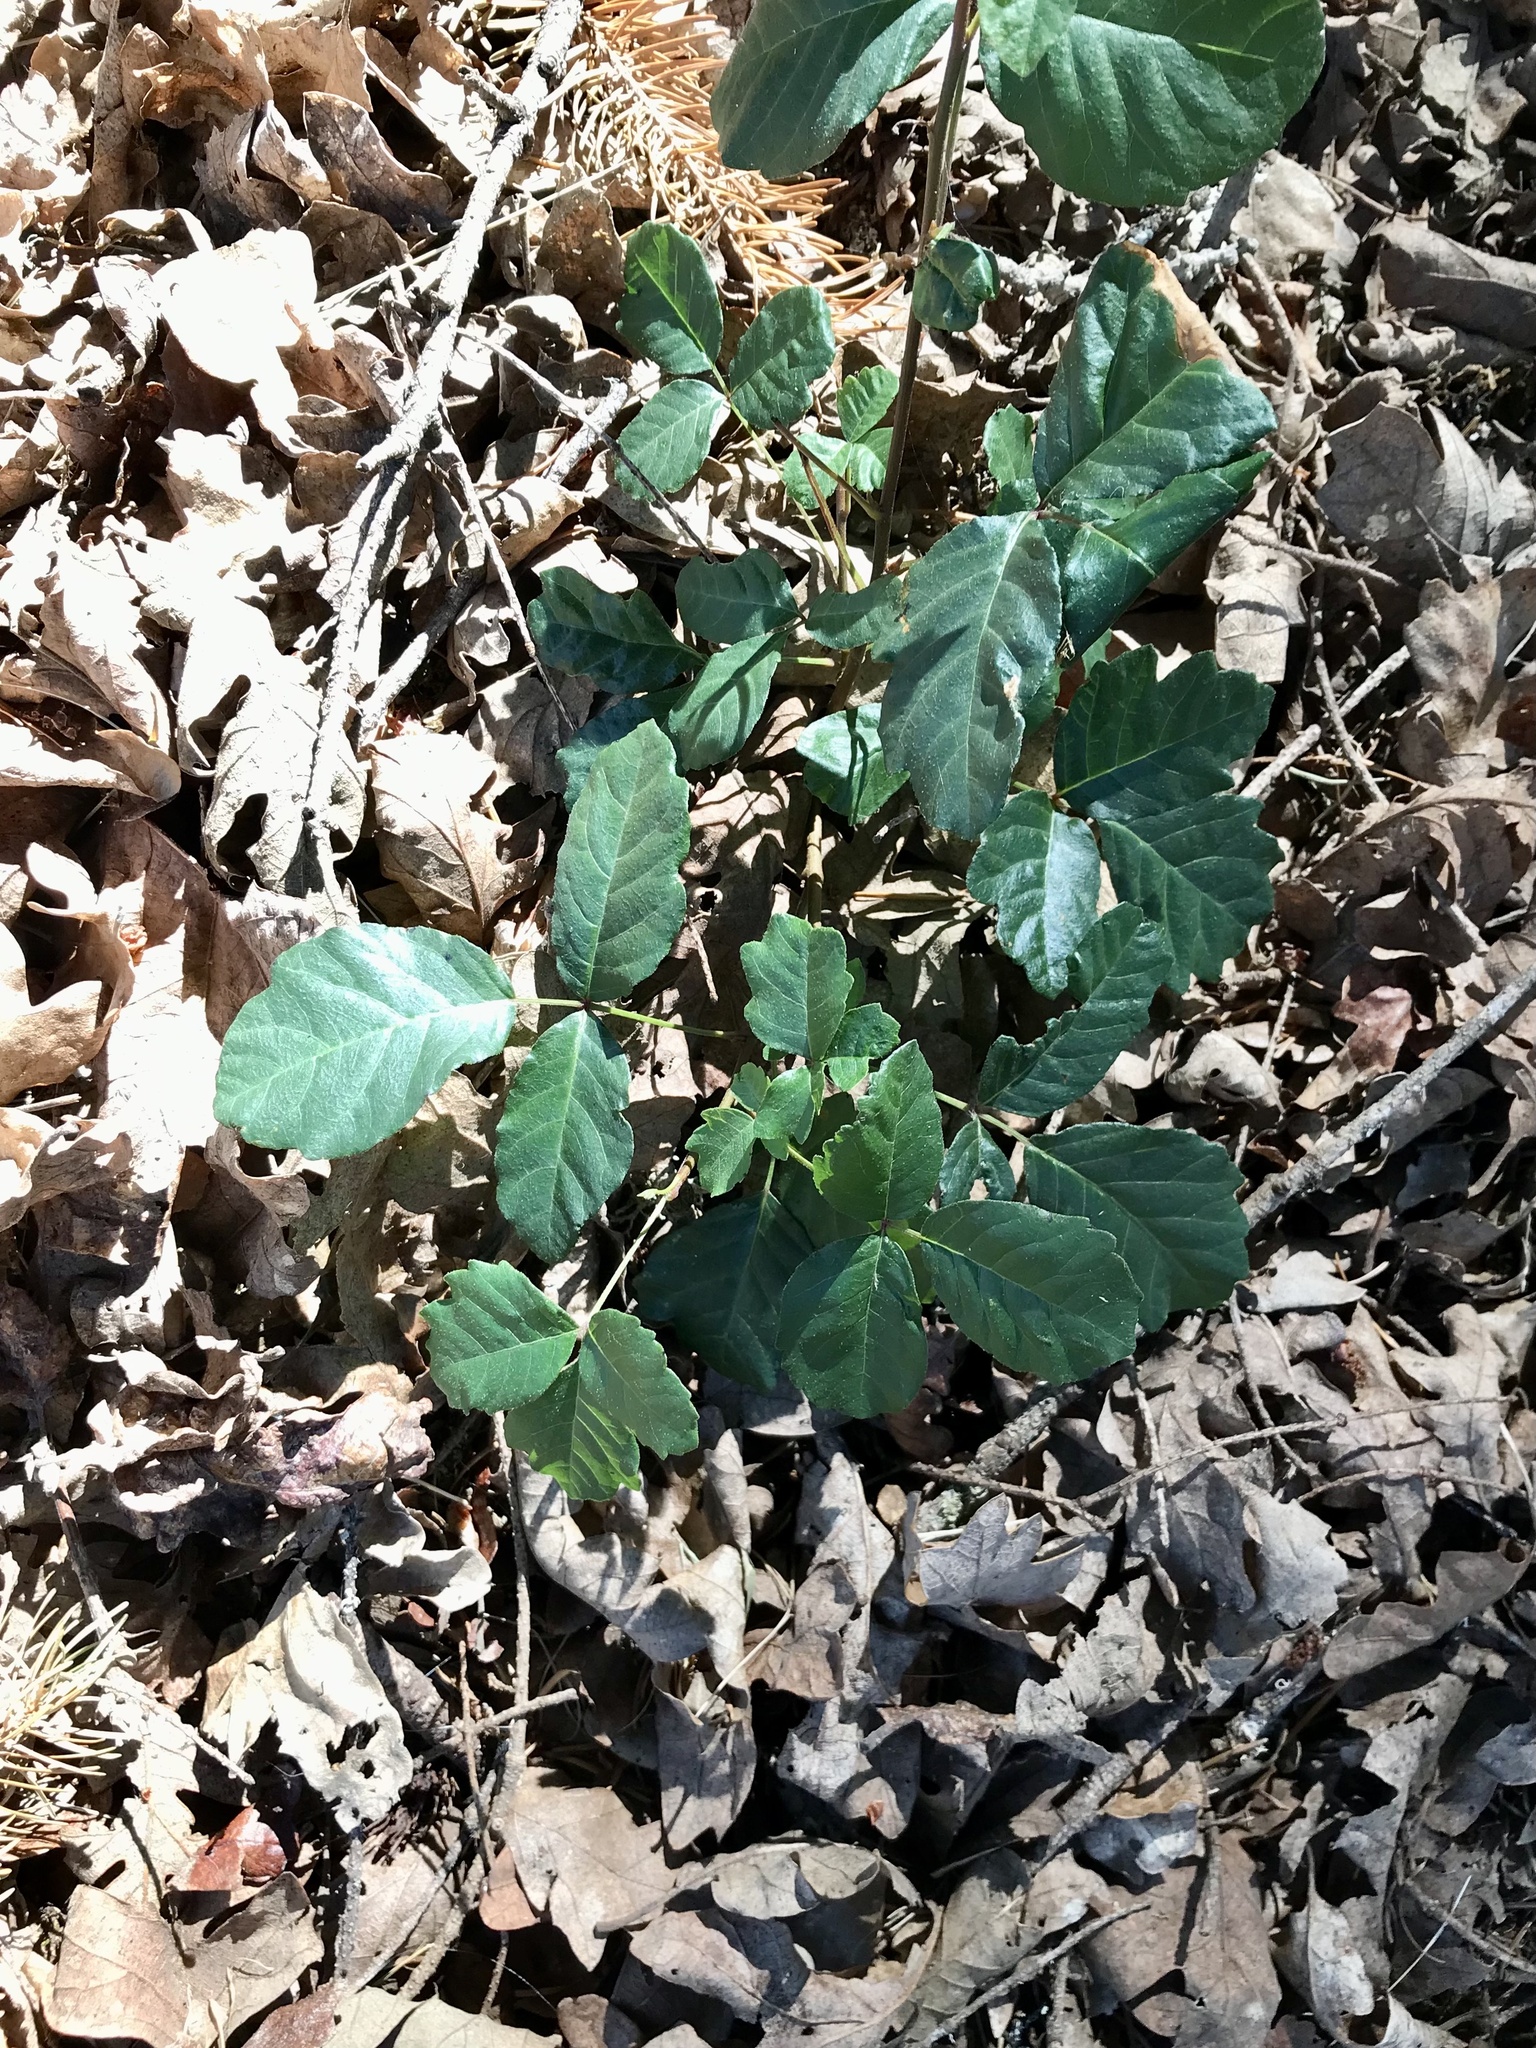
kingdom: Plantae
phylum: Tracheophyta
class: Magnoliopsida
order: Sapindales
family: Anacardiaceae
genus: Toxicodendron
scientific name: Toxicodendron diversilobum
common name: Pacific poison-oak
